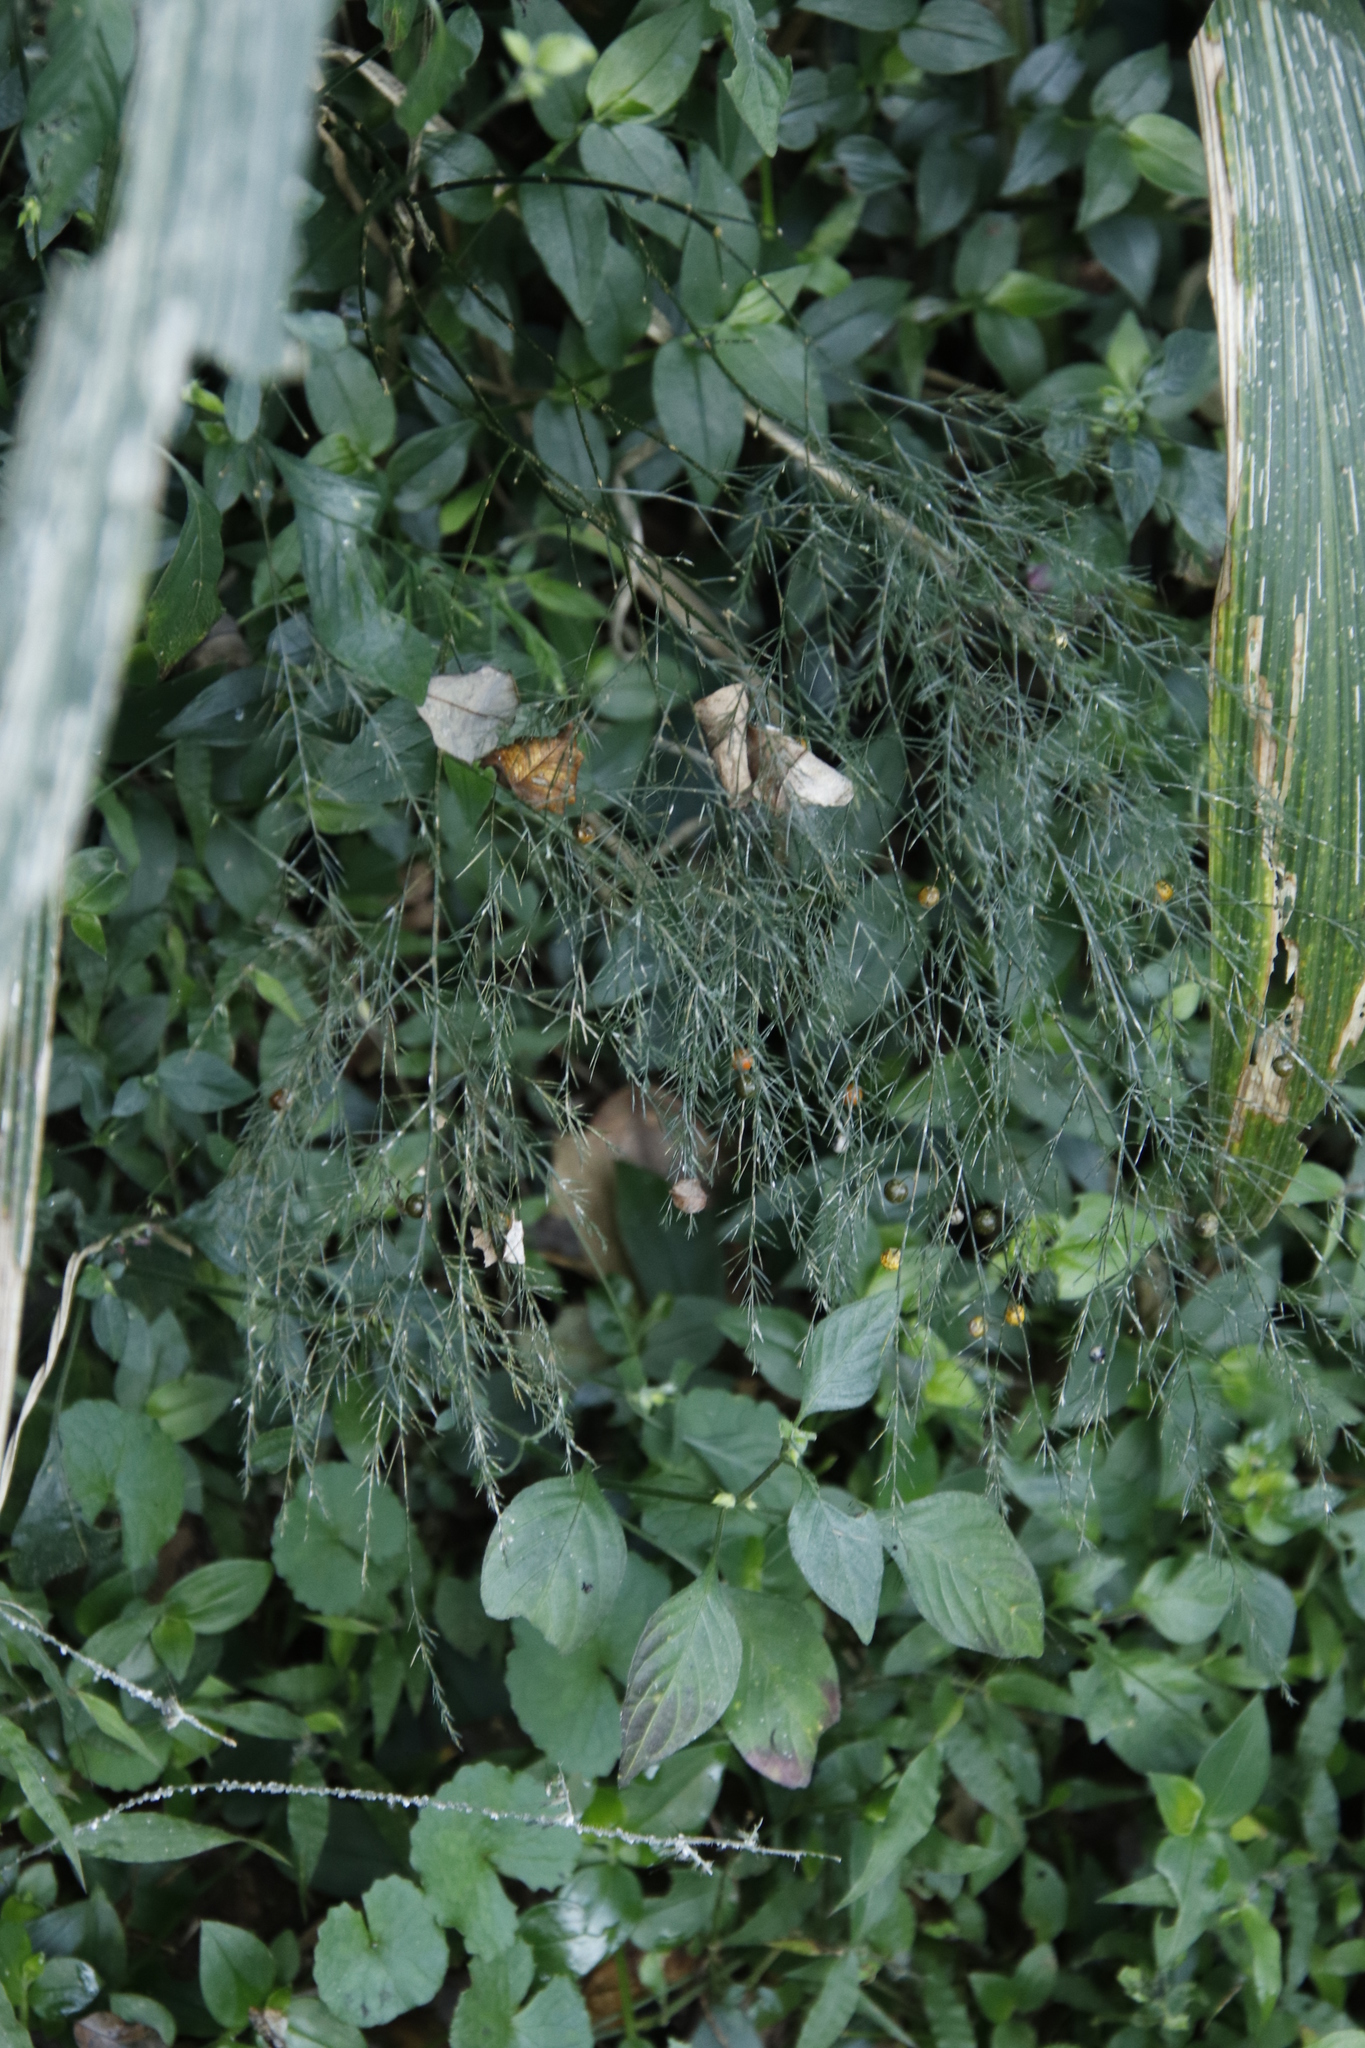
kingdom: Plantae
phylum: Tracheophyta
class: Liliopsida
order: Asparagales
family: Asparagaceae
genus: Asparagus
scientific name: Asparagus virgatus
